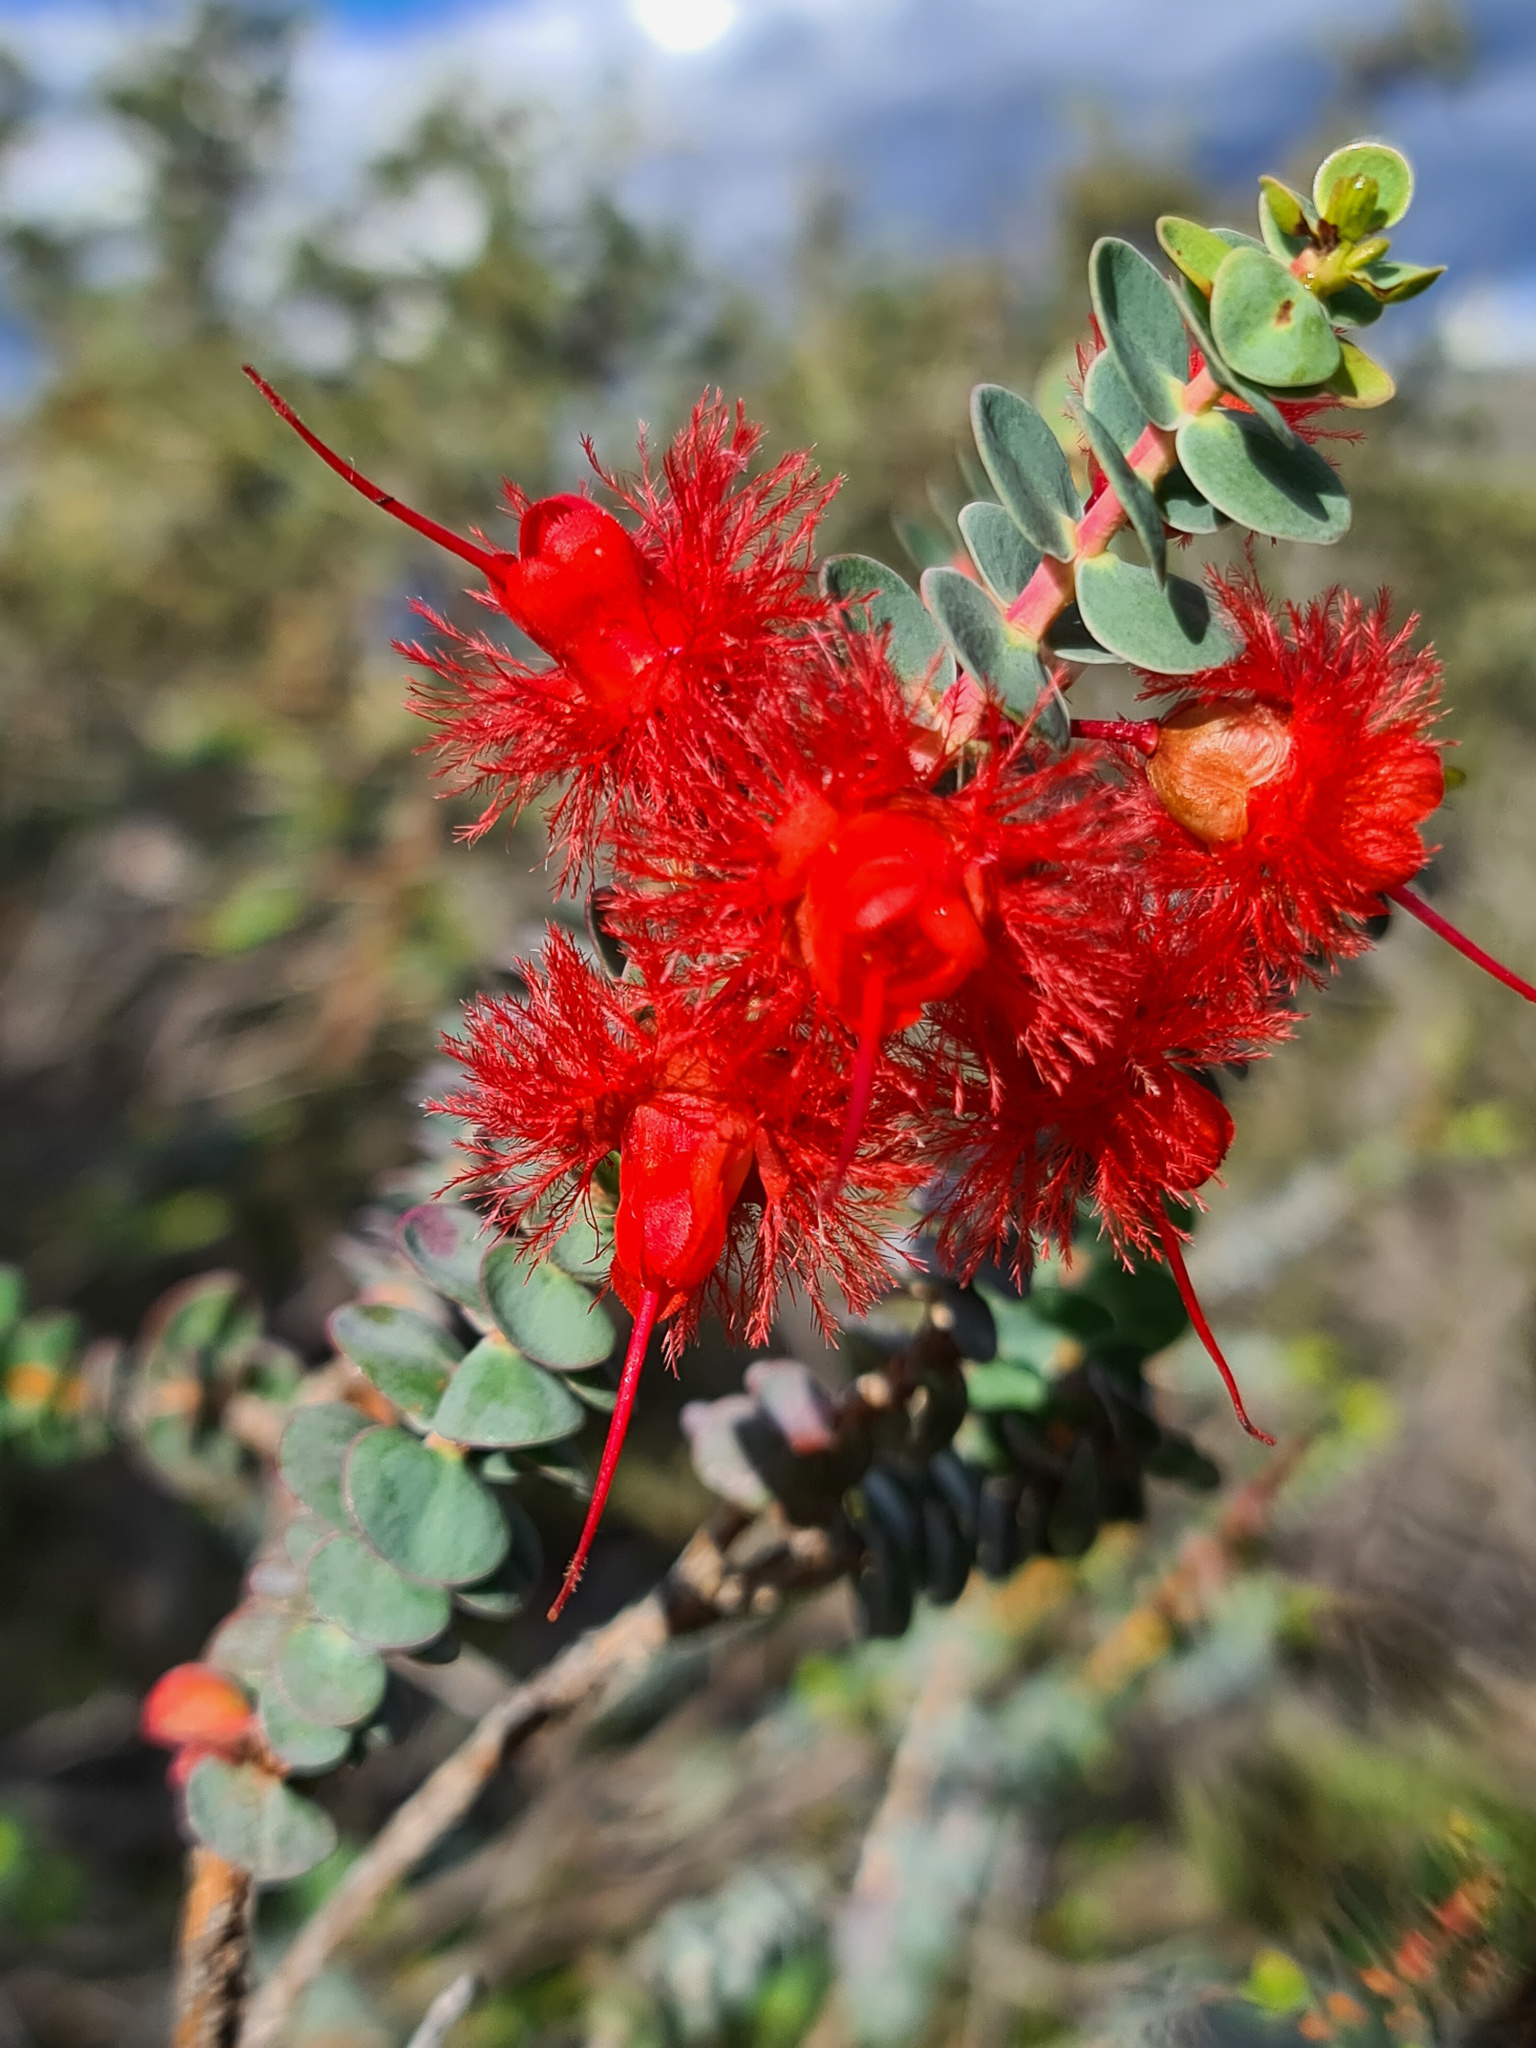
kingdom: Plantae
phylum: Tracheophyta
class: Magnoliopsida
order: Myrtales
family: Myrtaceae
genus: Verticordia
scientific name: Verticordia grandis
